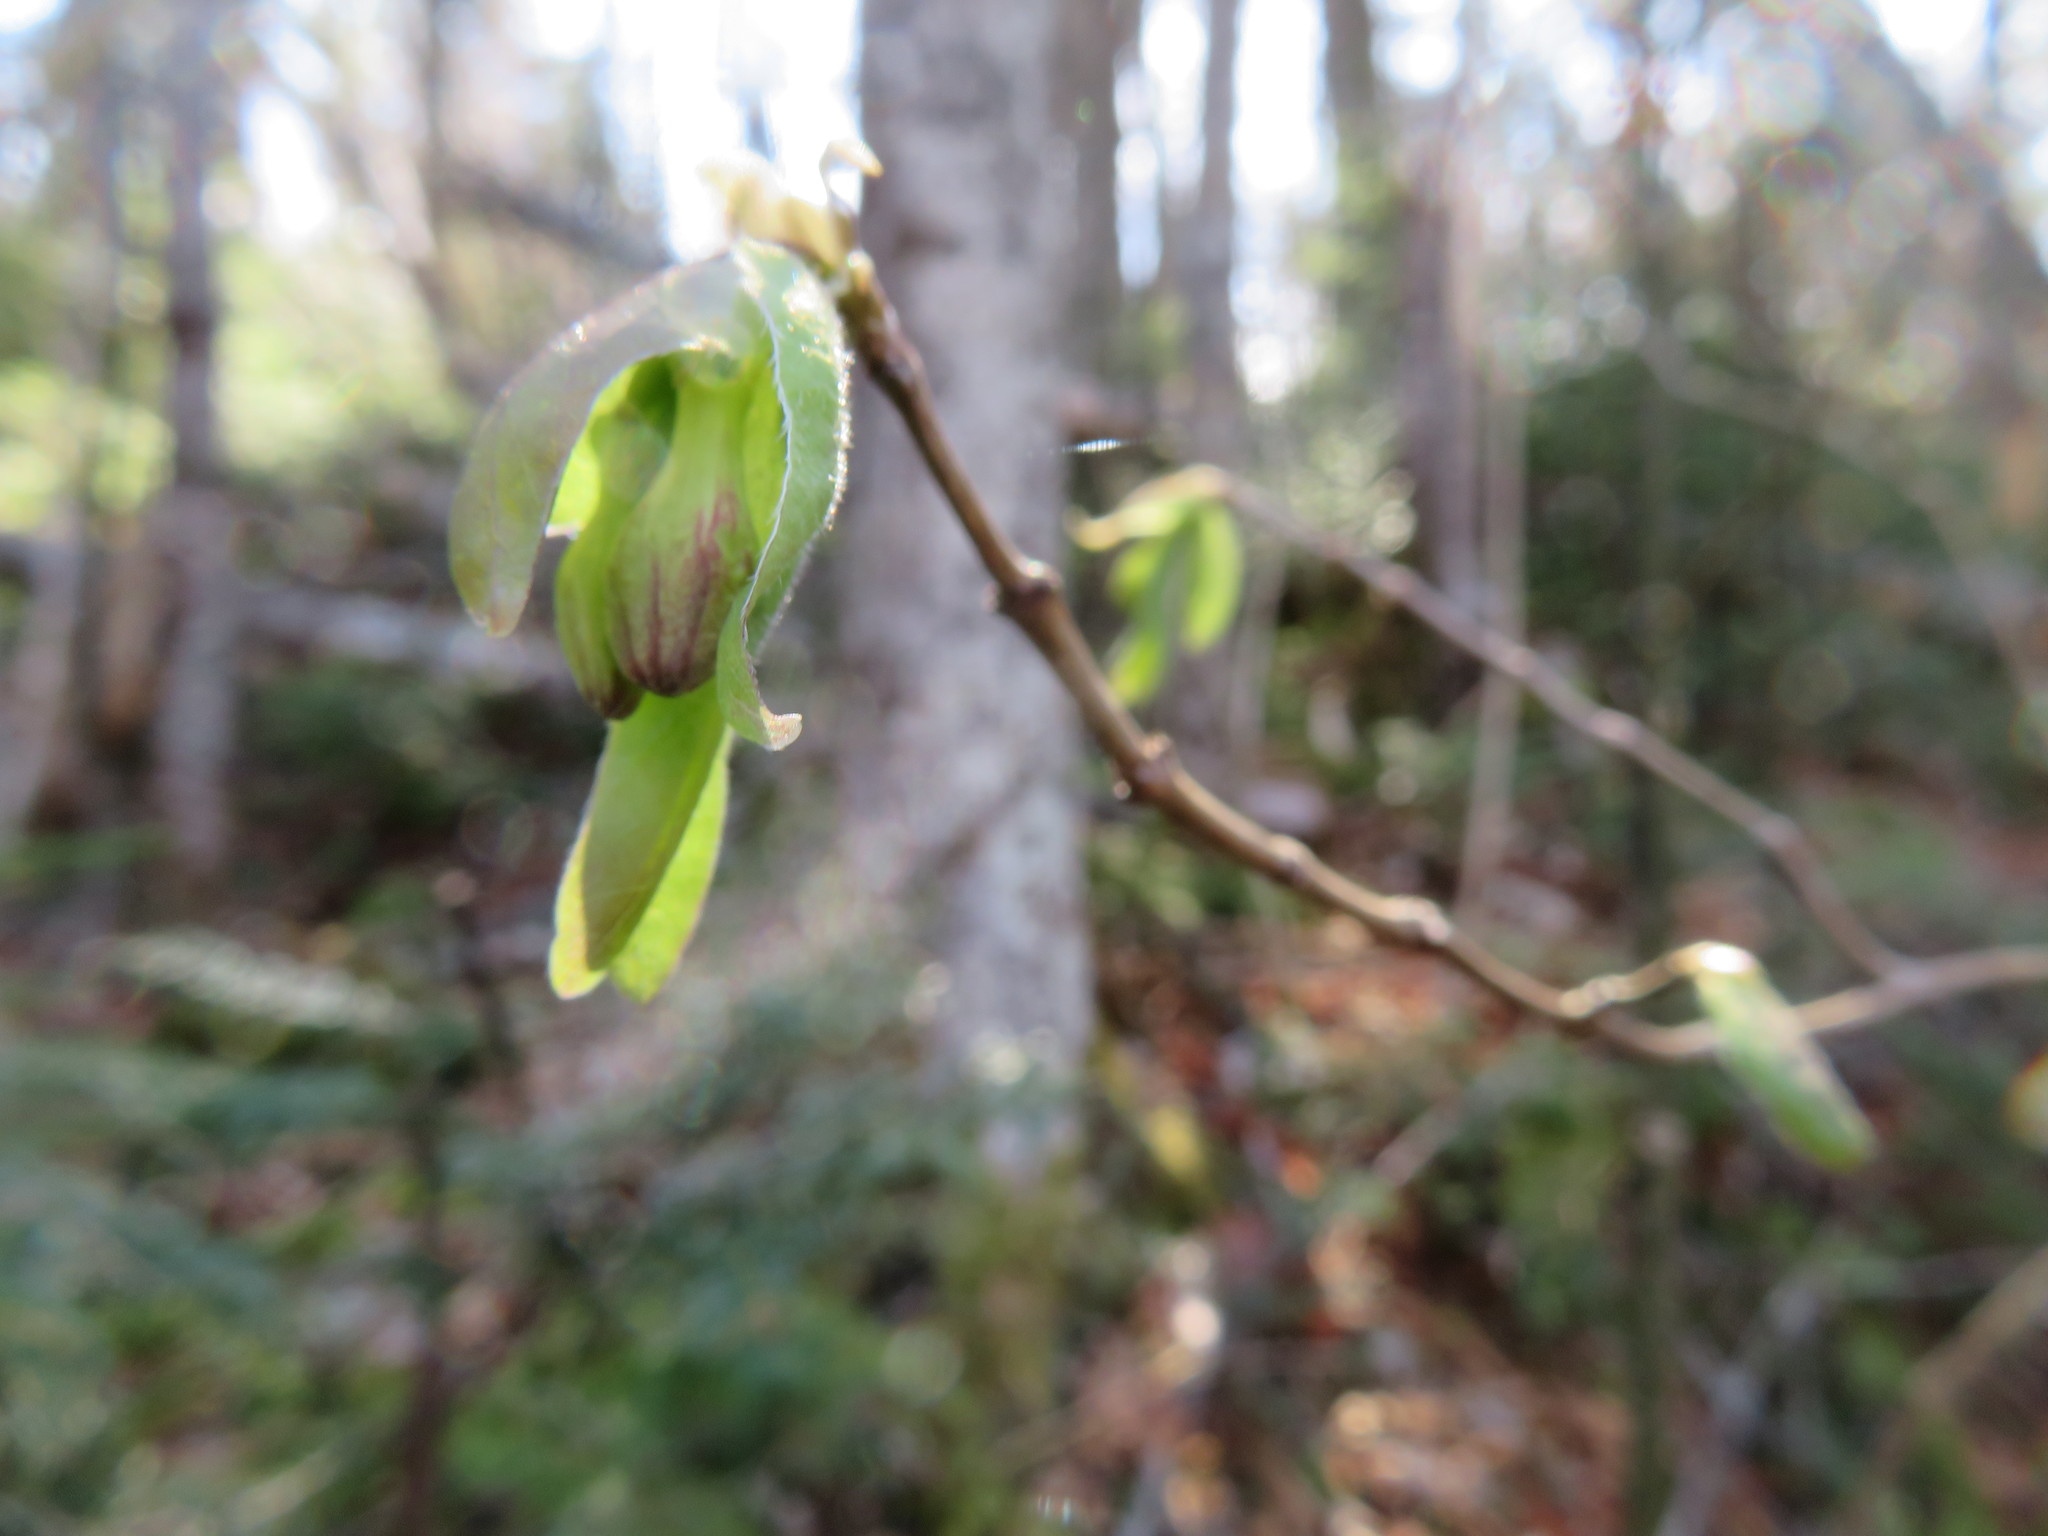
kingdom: Plantae
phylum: Tracheophyta
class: Magnoliopsida
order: Dipsacales
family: Caprifoliaceae
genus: Lonicera
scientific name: Lonicera canadensis
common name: American fly-honeysuckle
